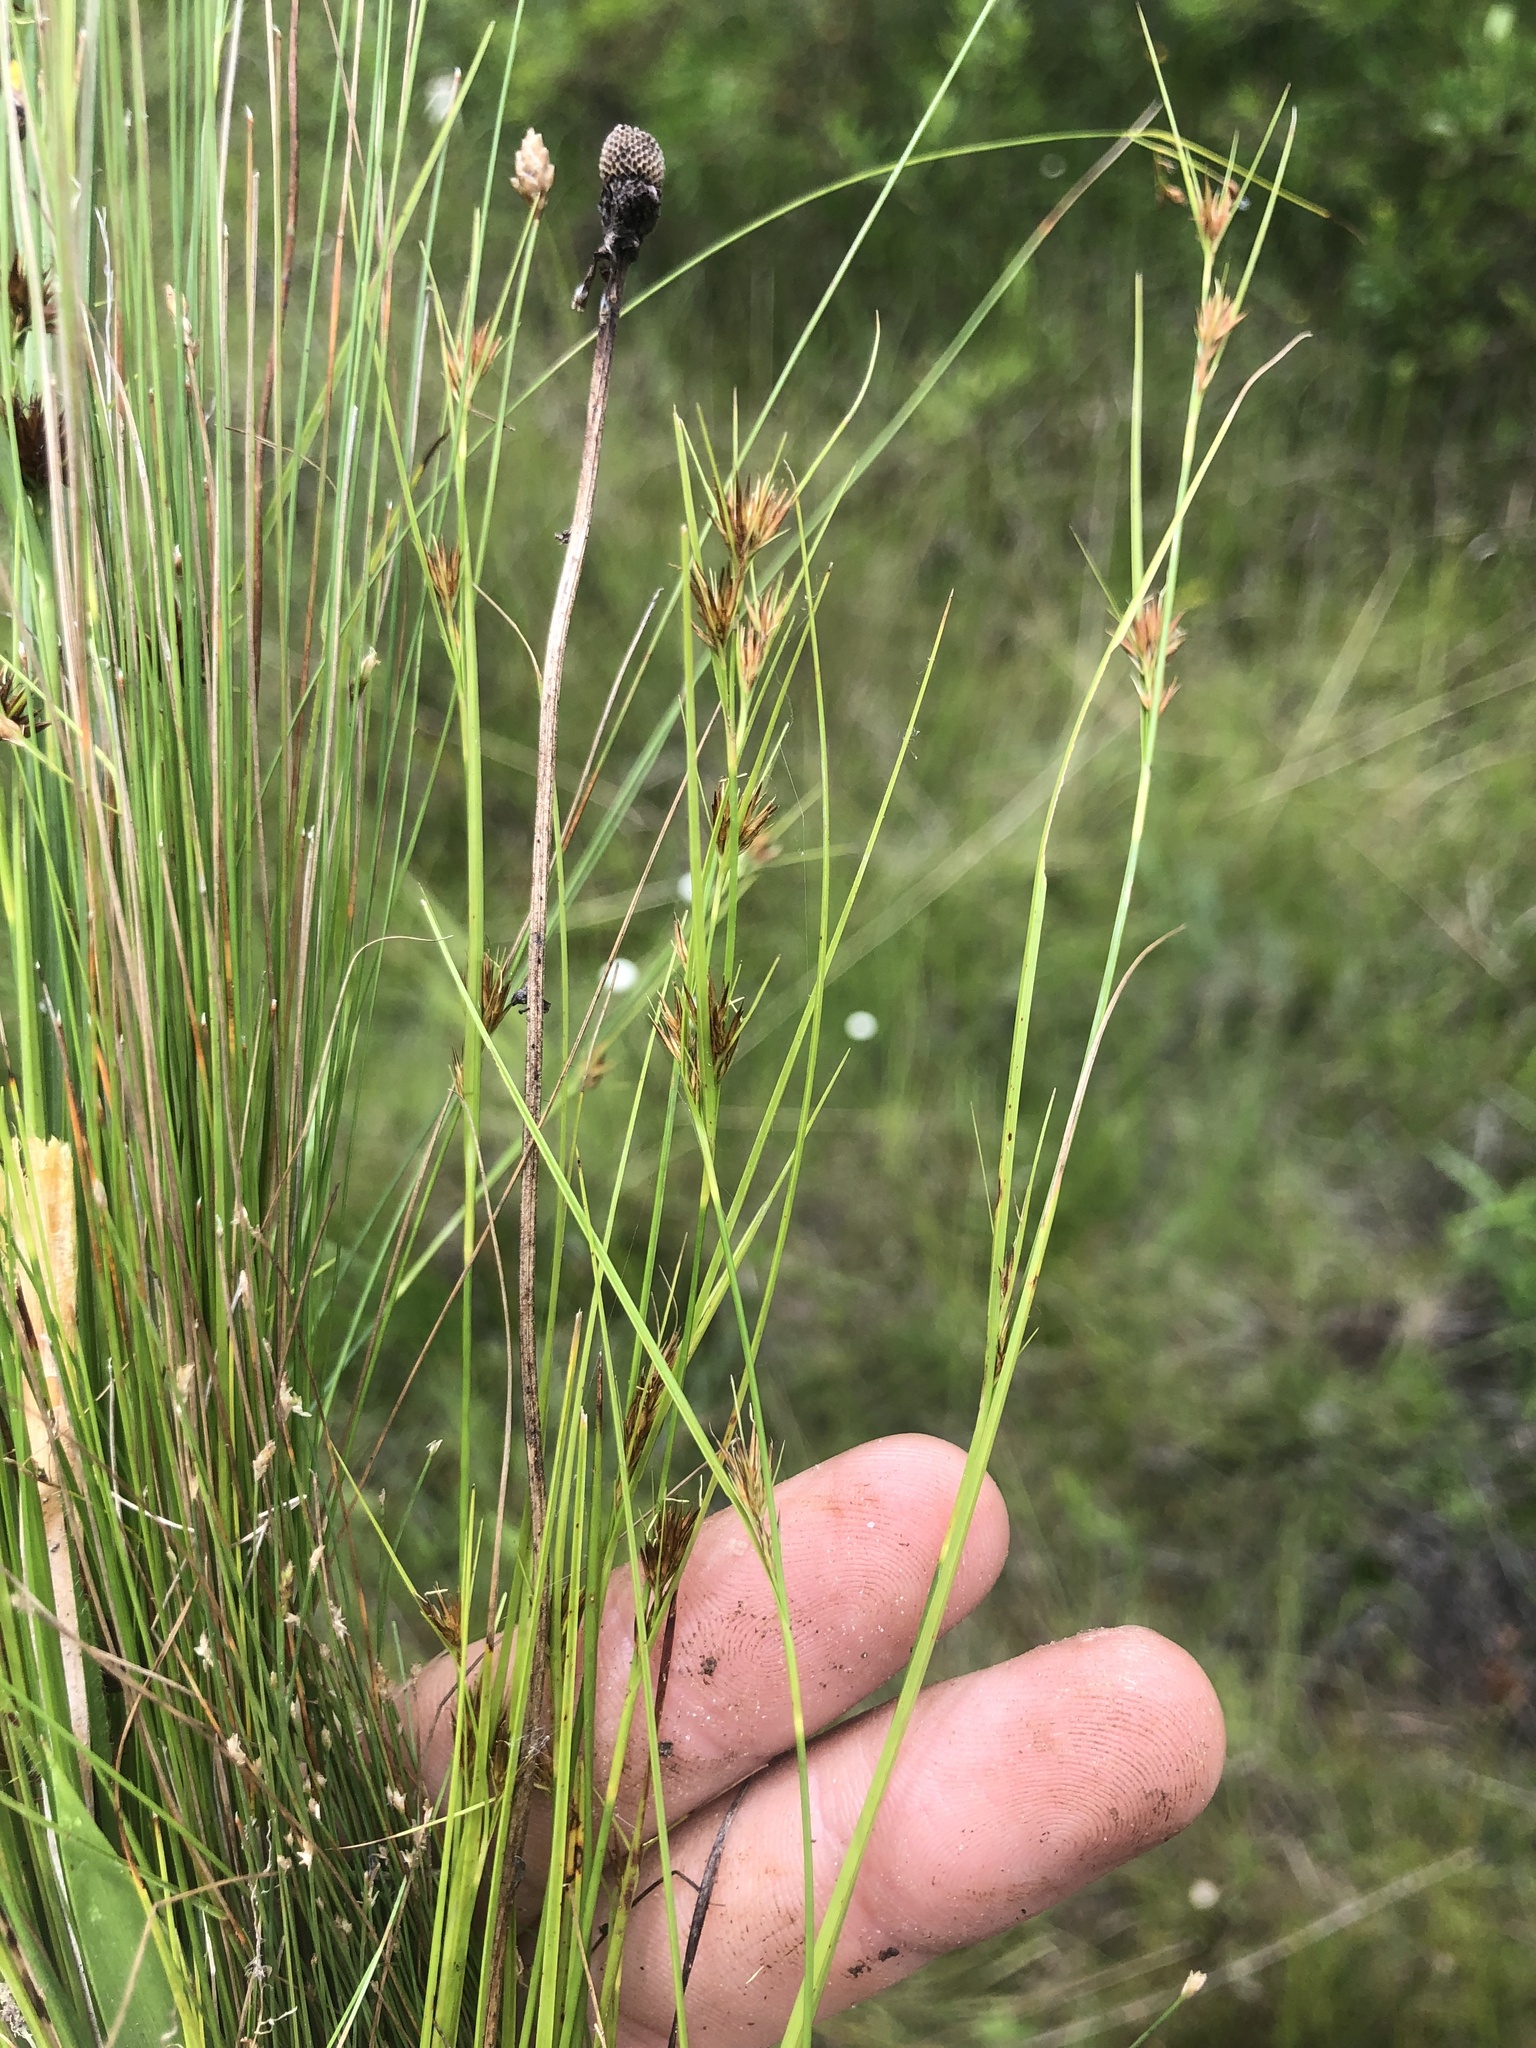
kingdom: Plantae
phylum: Tracheophyta
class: Liliopsida
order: Poales
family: Cyperaceae
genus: Rhynchospora
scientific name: Rhynchospora capitellata
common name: Brownish beaksedge
